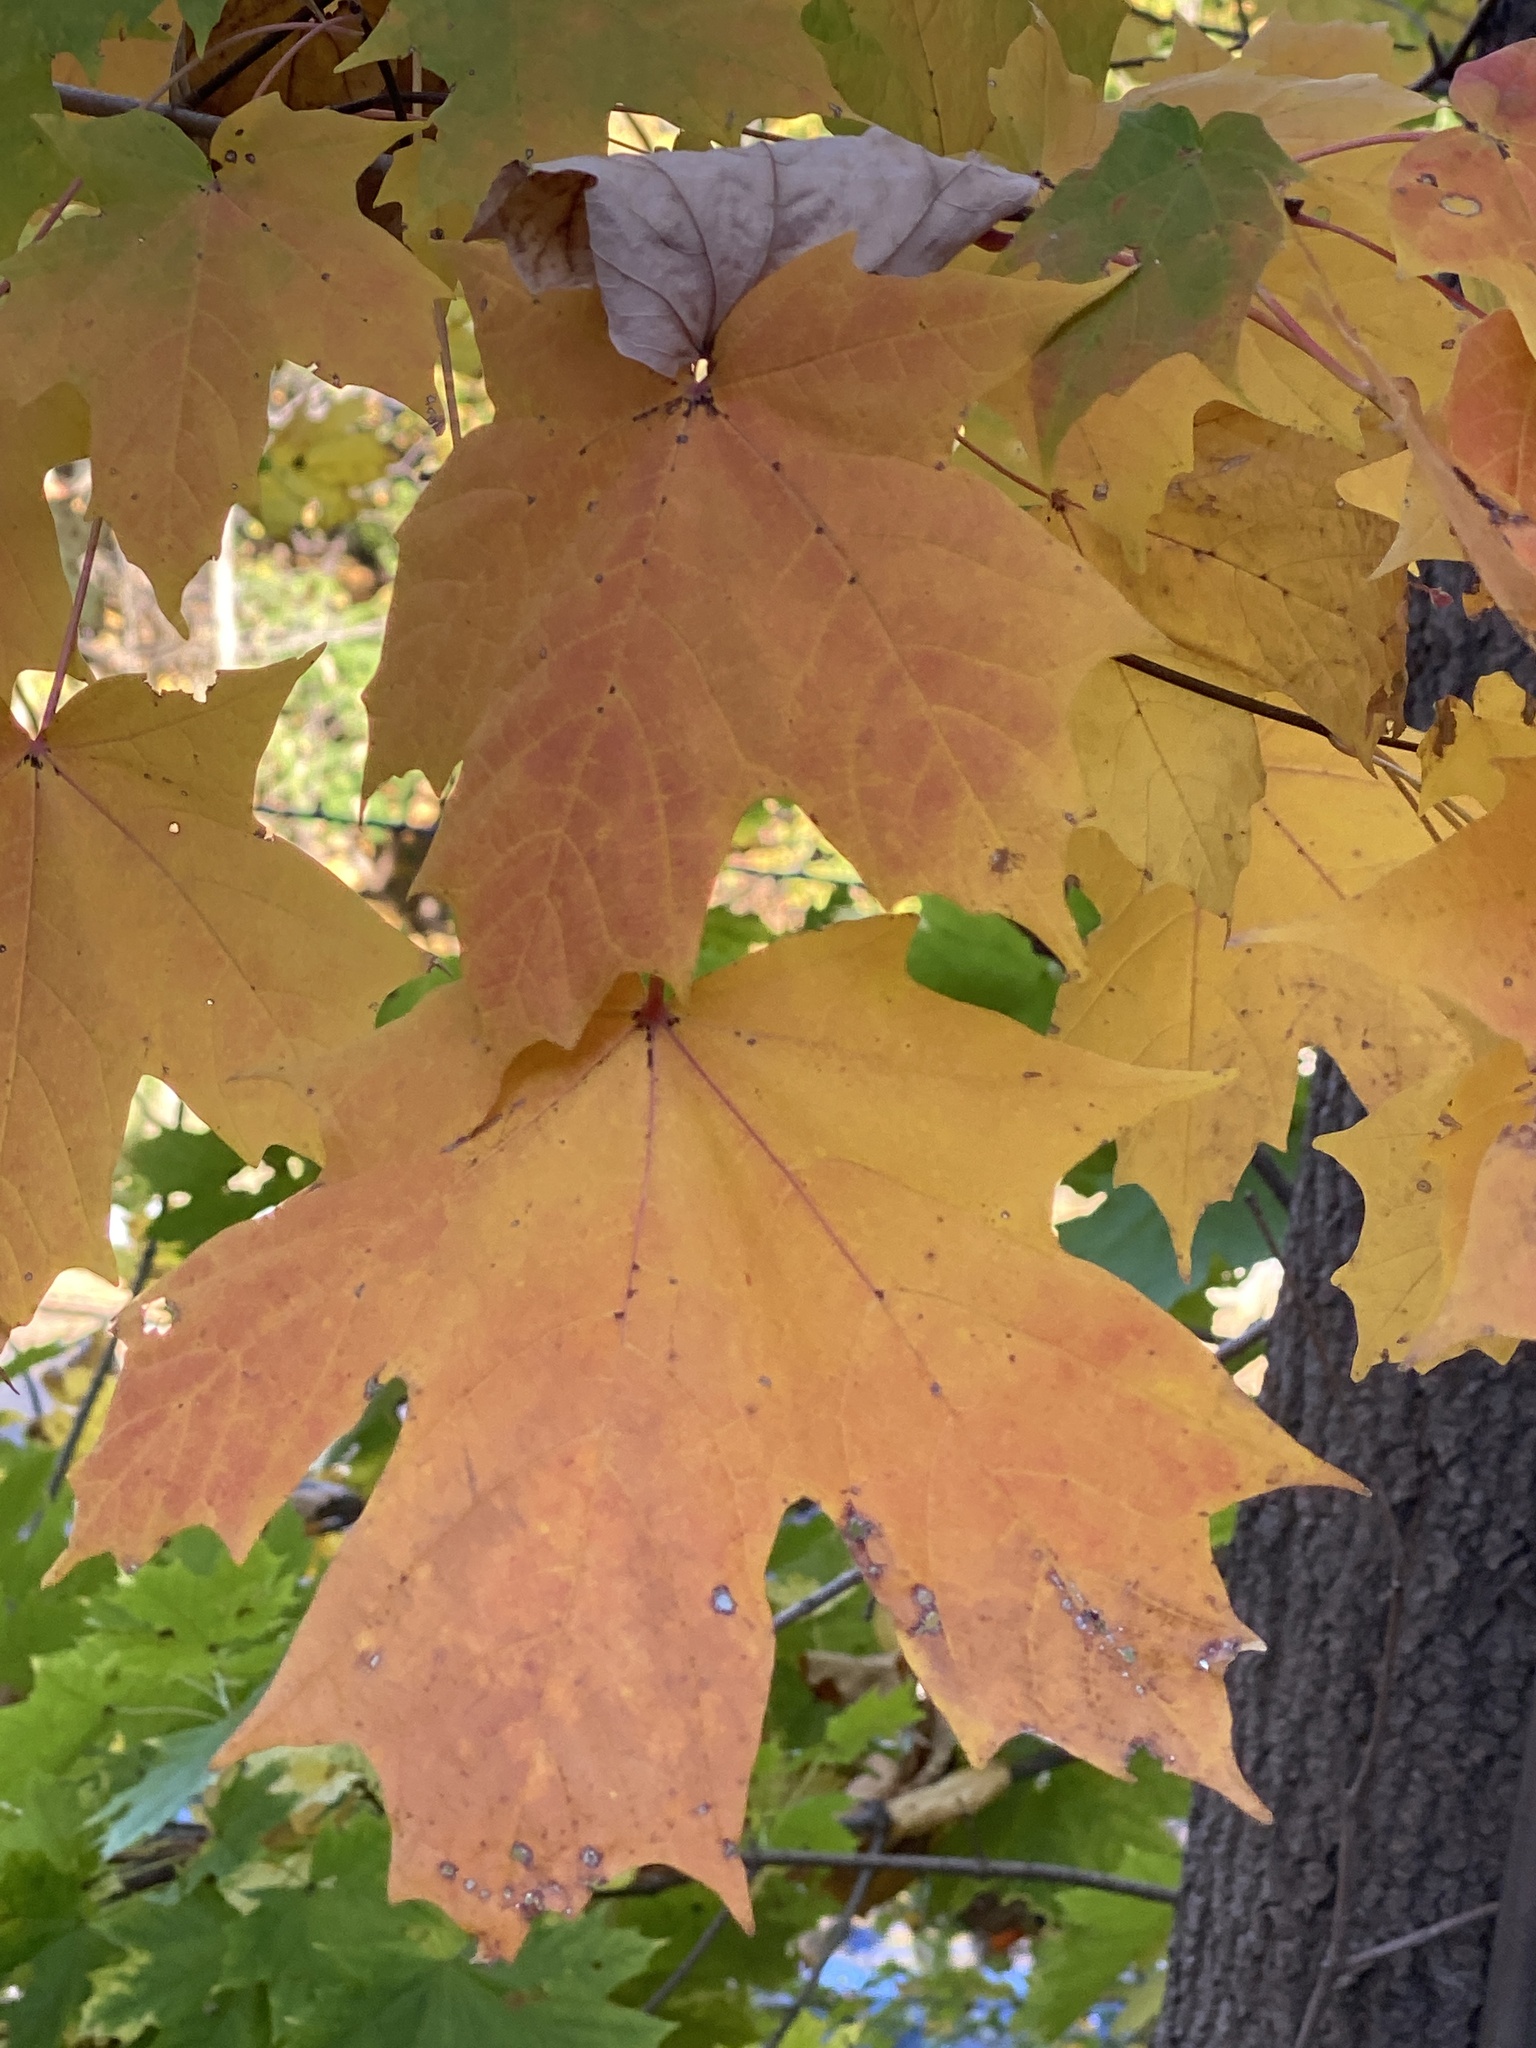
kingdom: Plantae
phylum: Tracheophyta
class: Magnoliopsida
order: Sapindales
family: Sapindaceae
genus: Acer
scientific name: Acer saccharum
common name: Sugar maple
